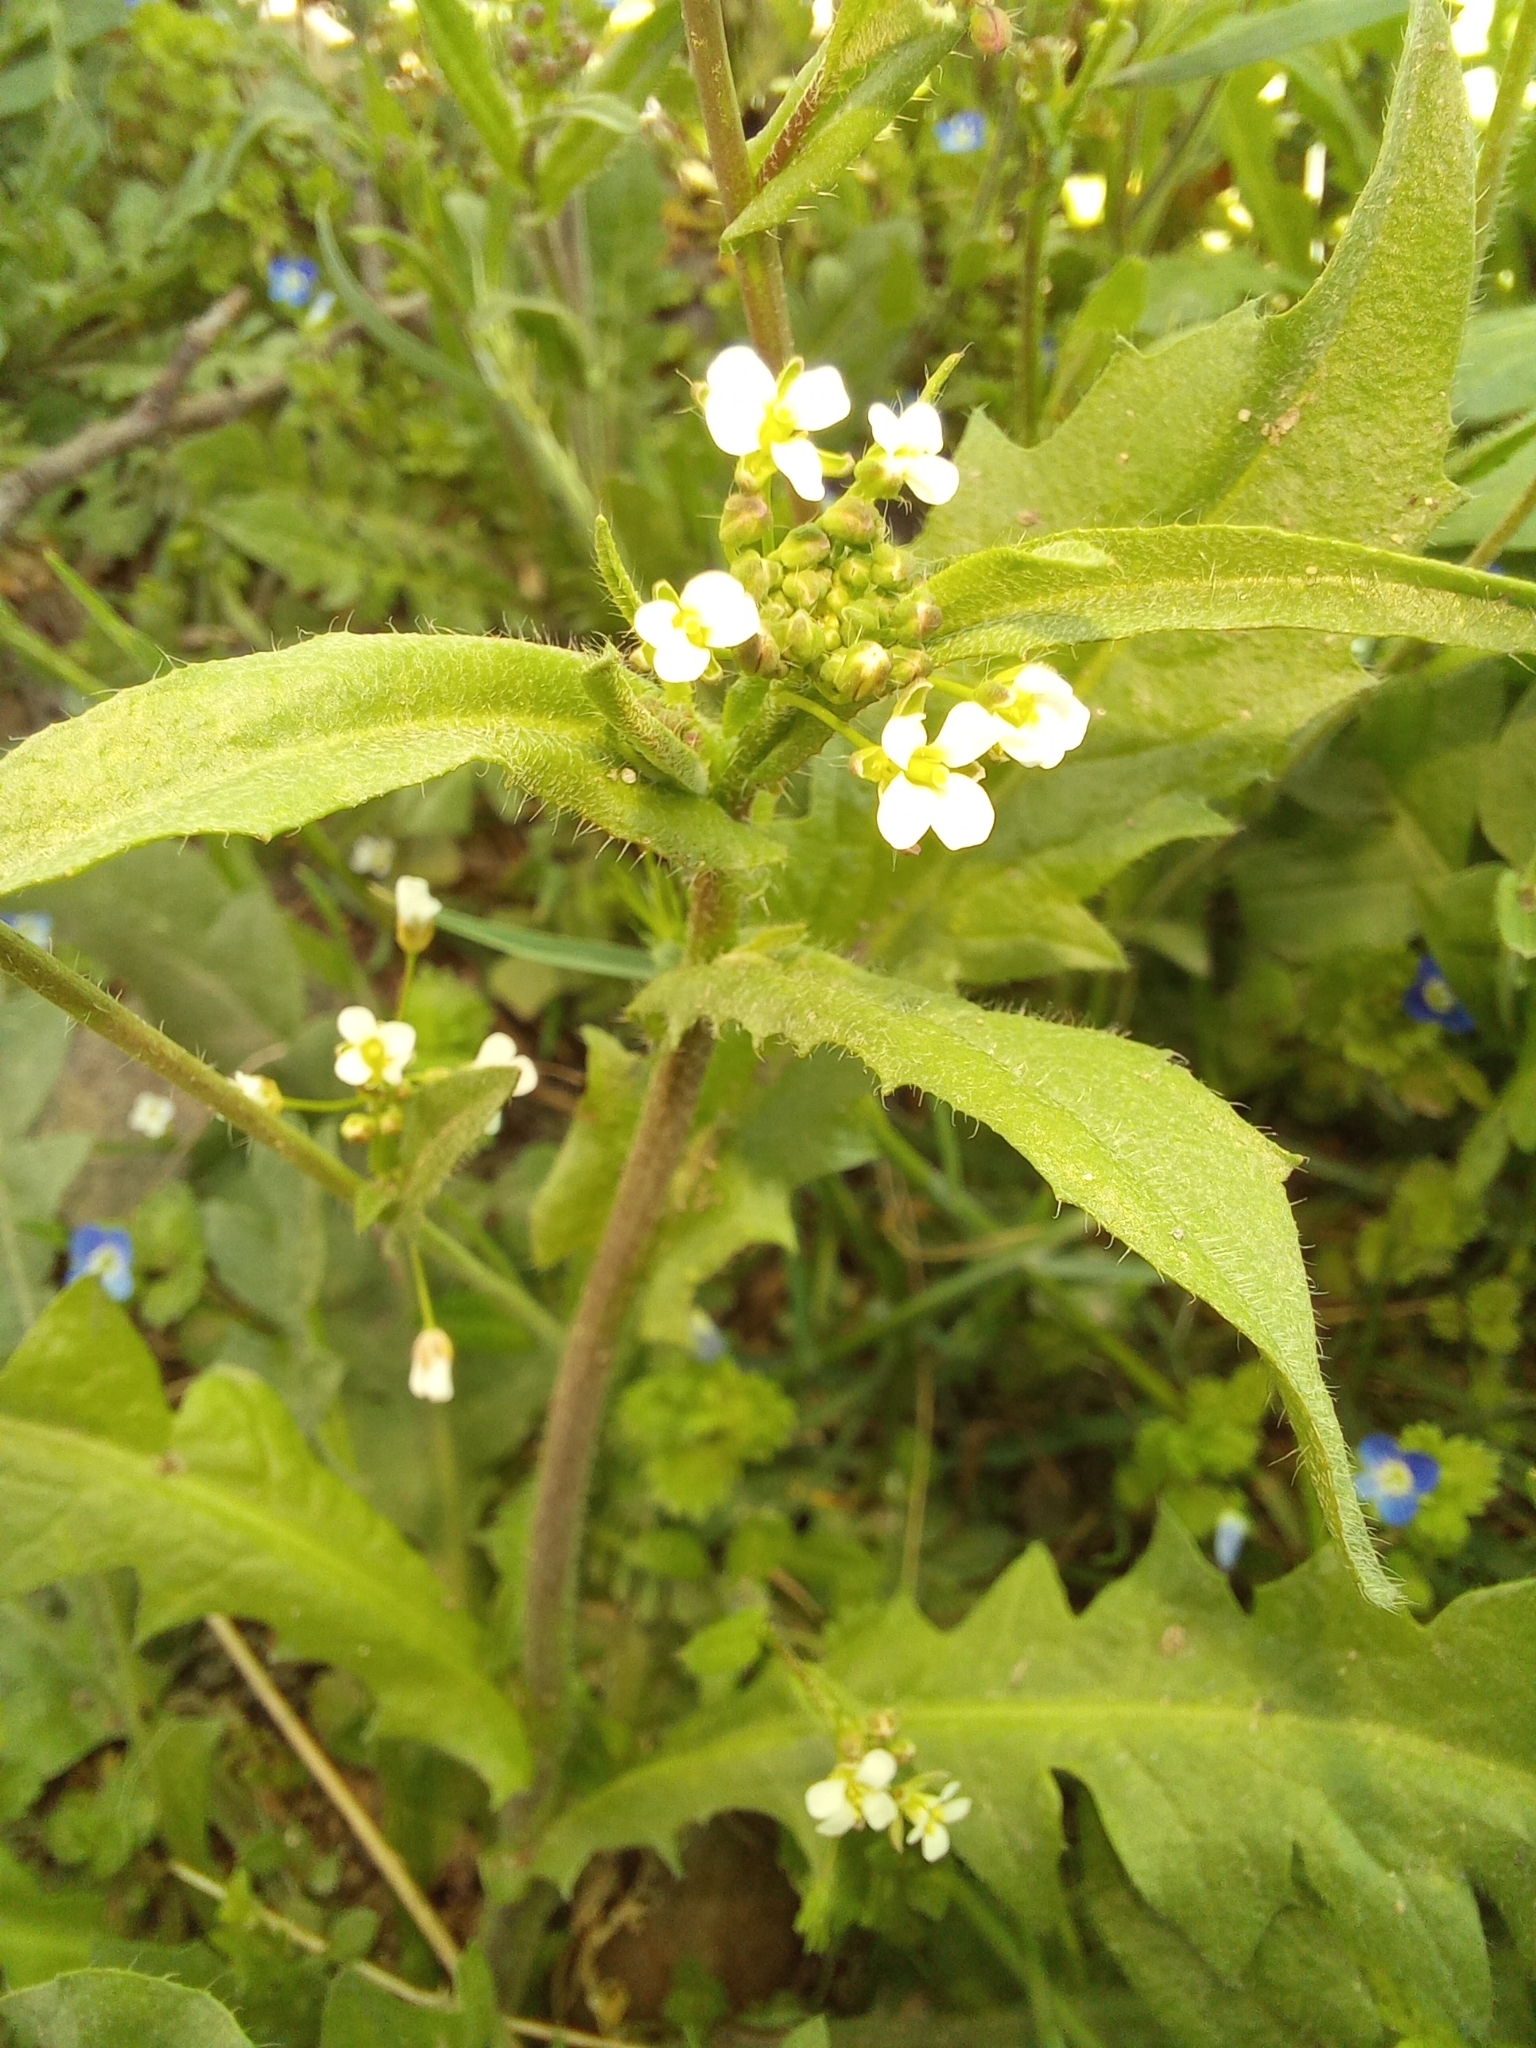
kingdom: Plantae
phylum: Tracheophyta
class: Magnoliopsida
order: Brassicales
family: Brassicaceae
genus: Capsella
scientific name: Capsella bursa-pastoris
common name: Shepherd's purse
